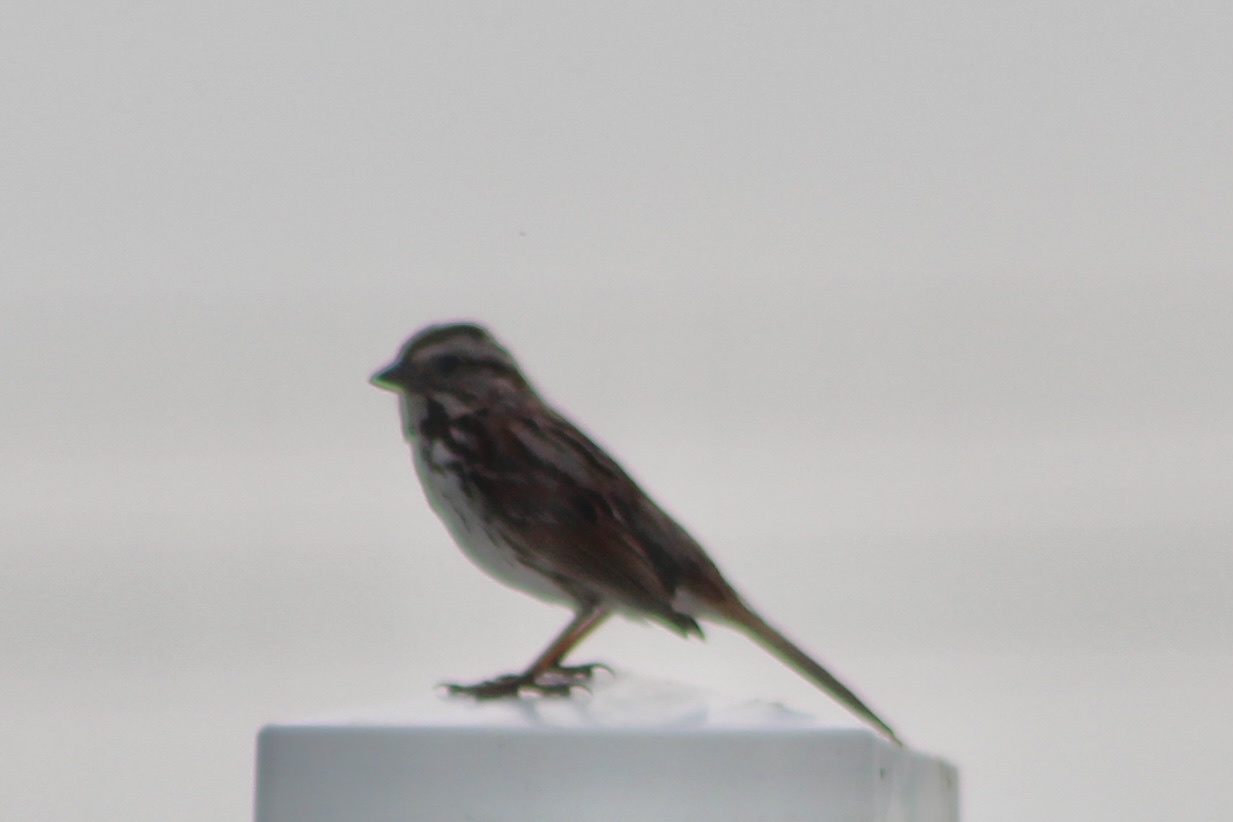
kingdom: Animalia
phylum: Chordata
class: Aves
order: Passeriformes
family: Passerellidae
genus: Melospiza
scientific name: Melospiza melodia
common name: Song sparrow
